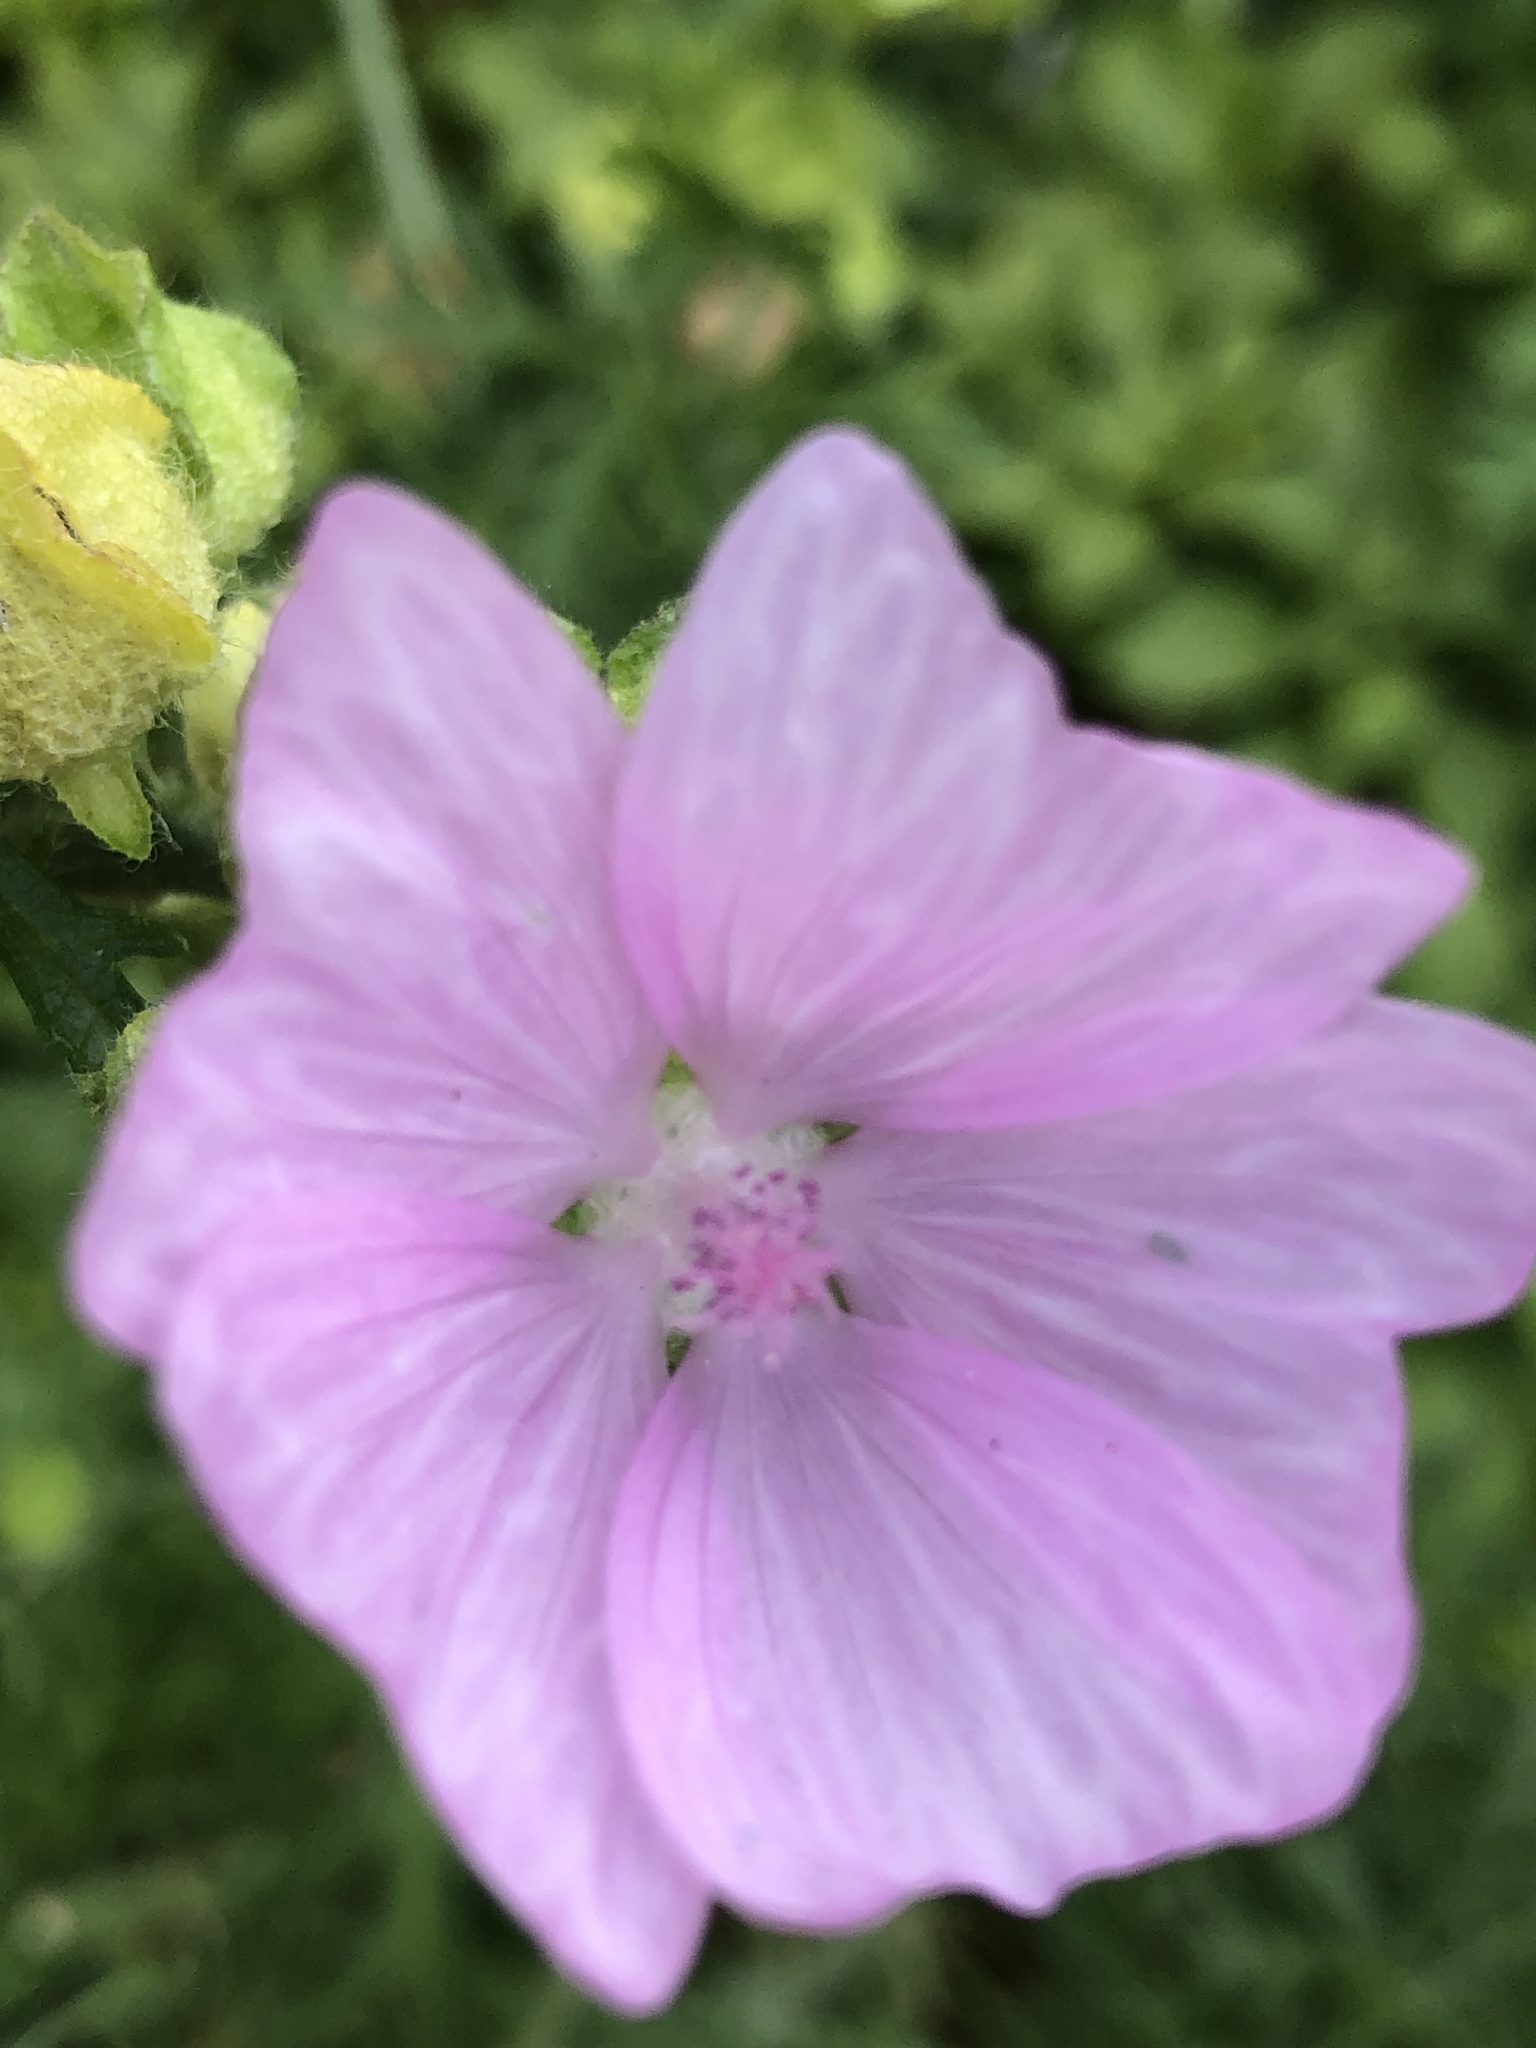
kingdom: Plantae
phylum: Tracheophyta
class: Magnoliopsida
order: Malvales
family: Malvaceae
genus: Malva
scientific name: Malva alcea
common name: Greater musk-mallow
